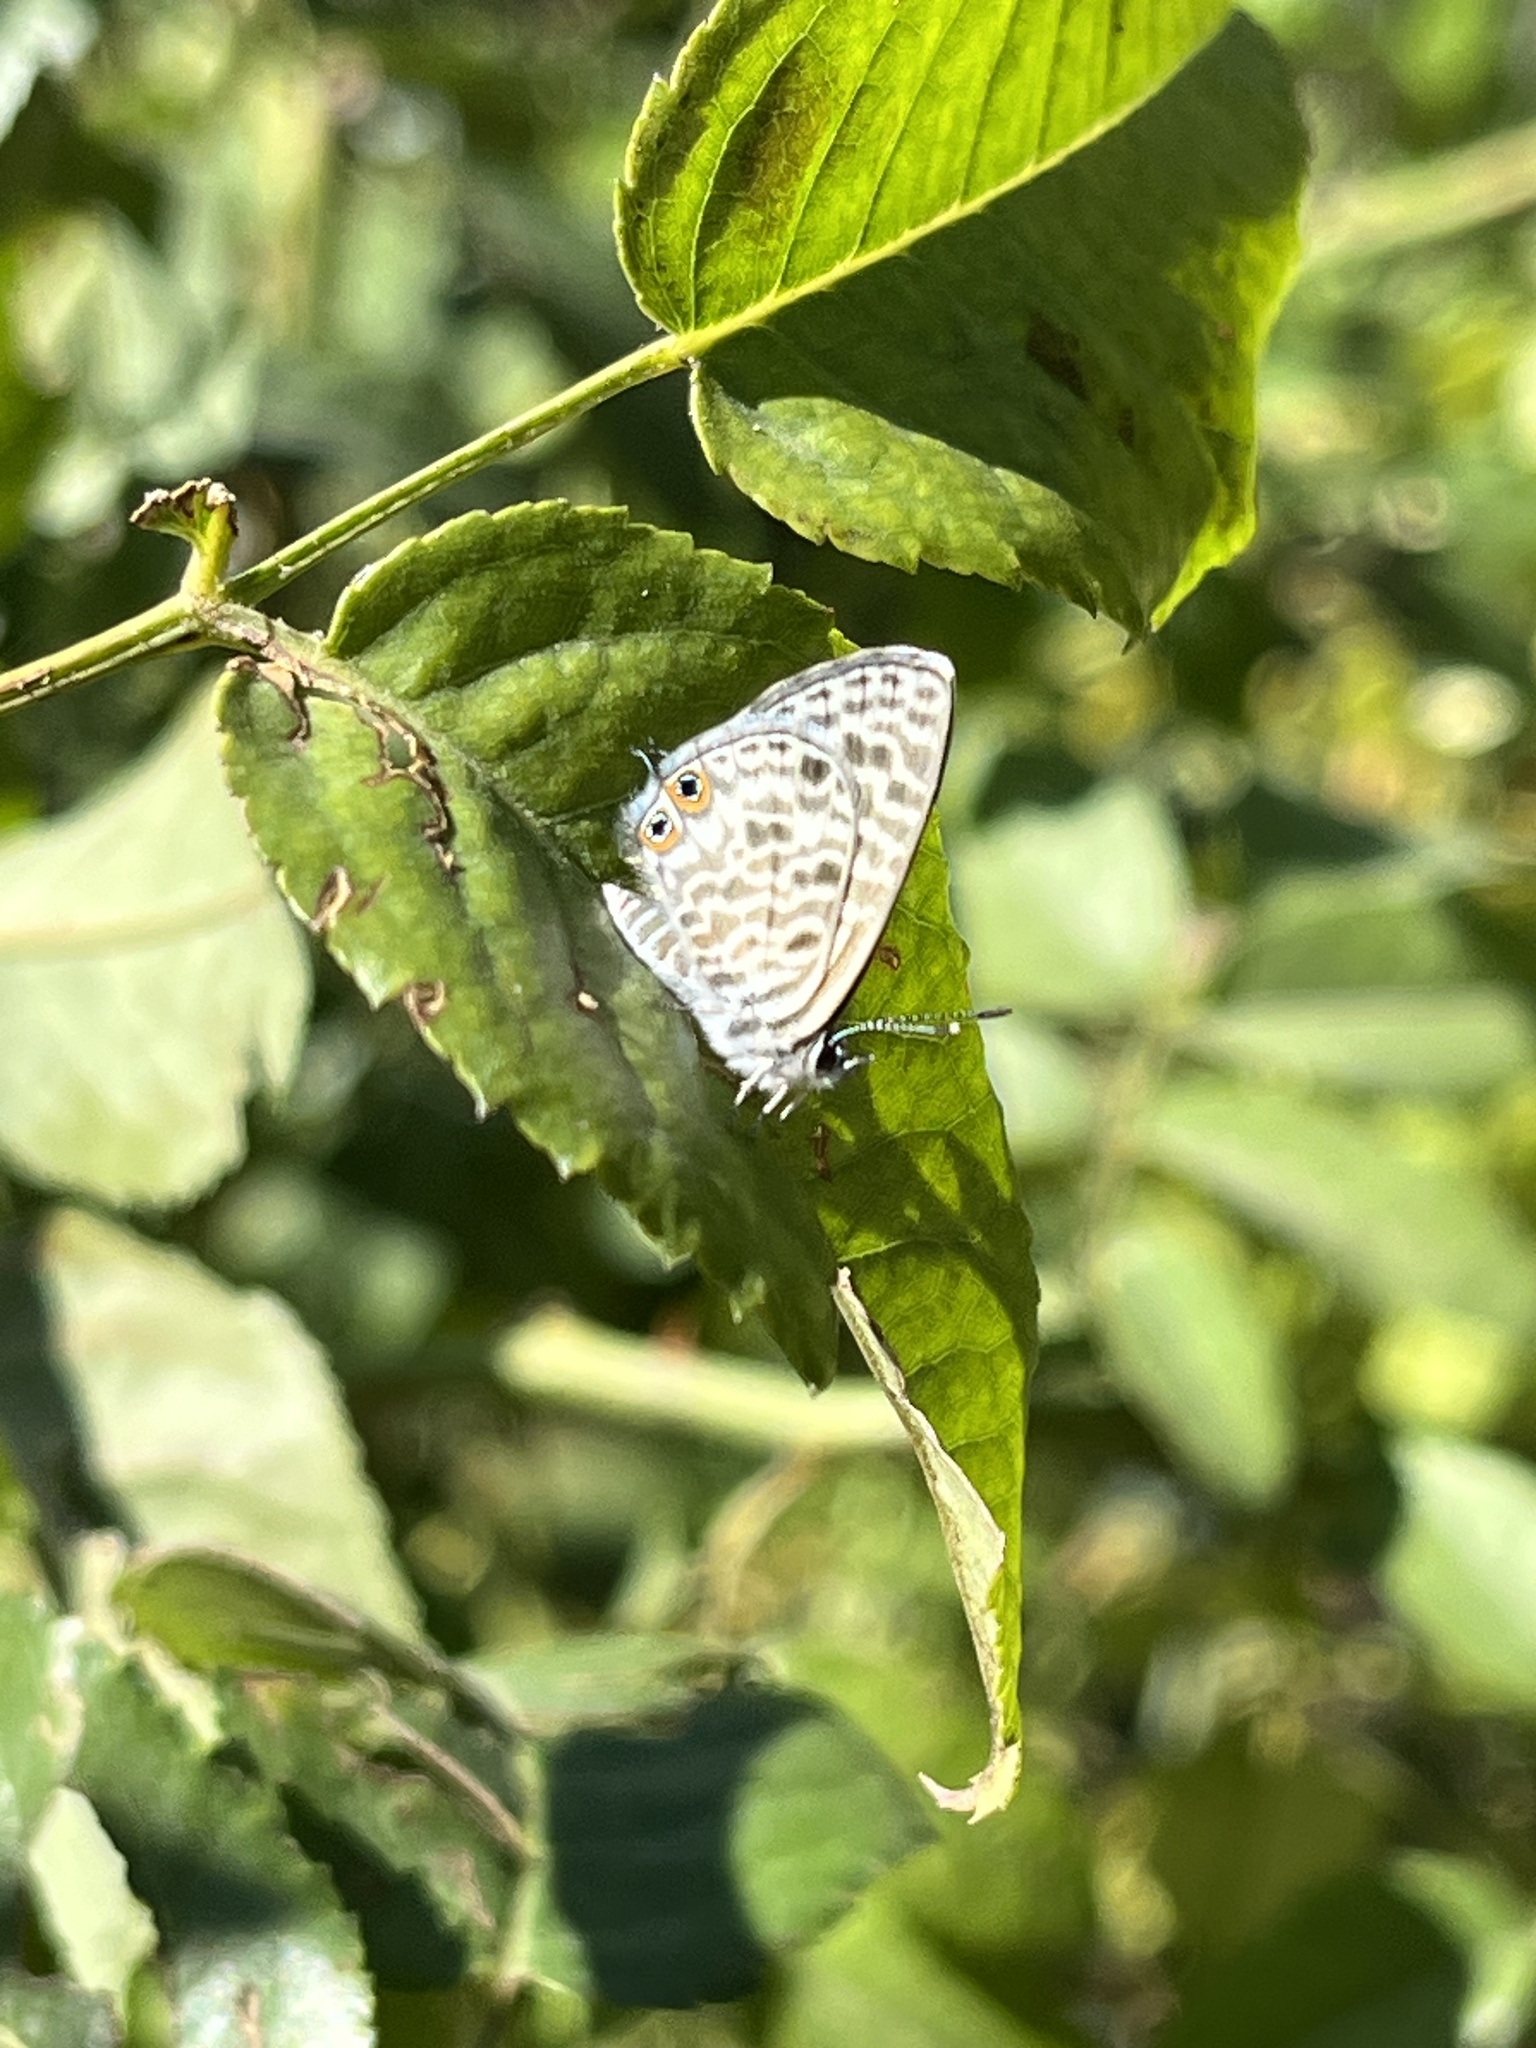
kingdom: Animalia
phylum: Arthropoda
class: Insecta
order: Lepidoptera
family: Lycaenidae
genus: Leptotes
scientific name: Leptotes pirithous
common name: Lang's short-tailed blue
